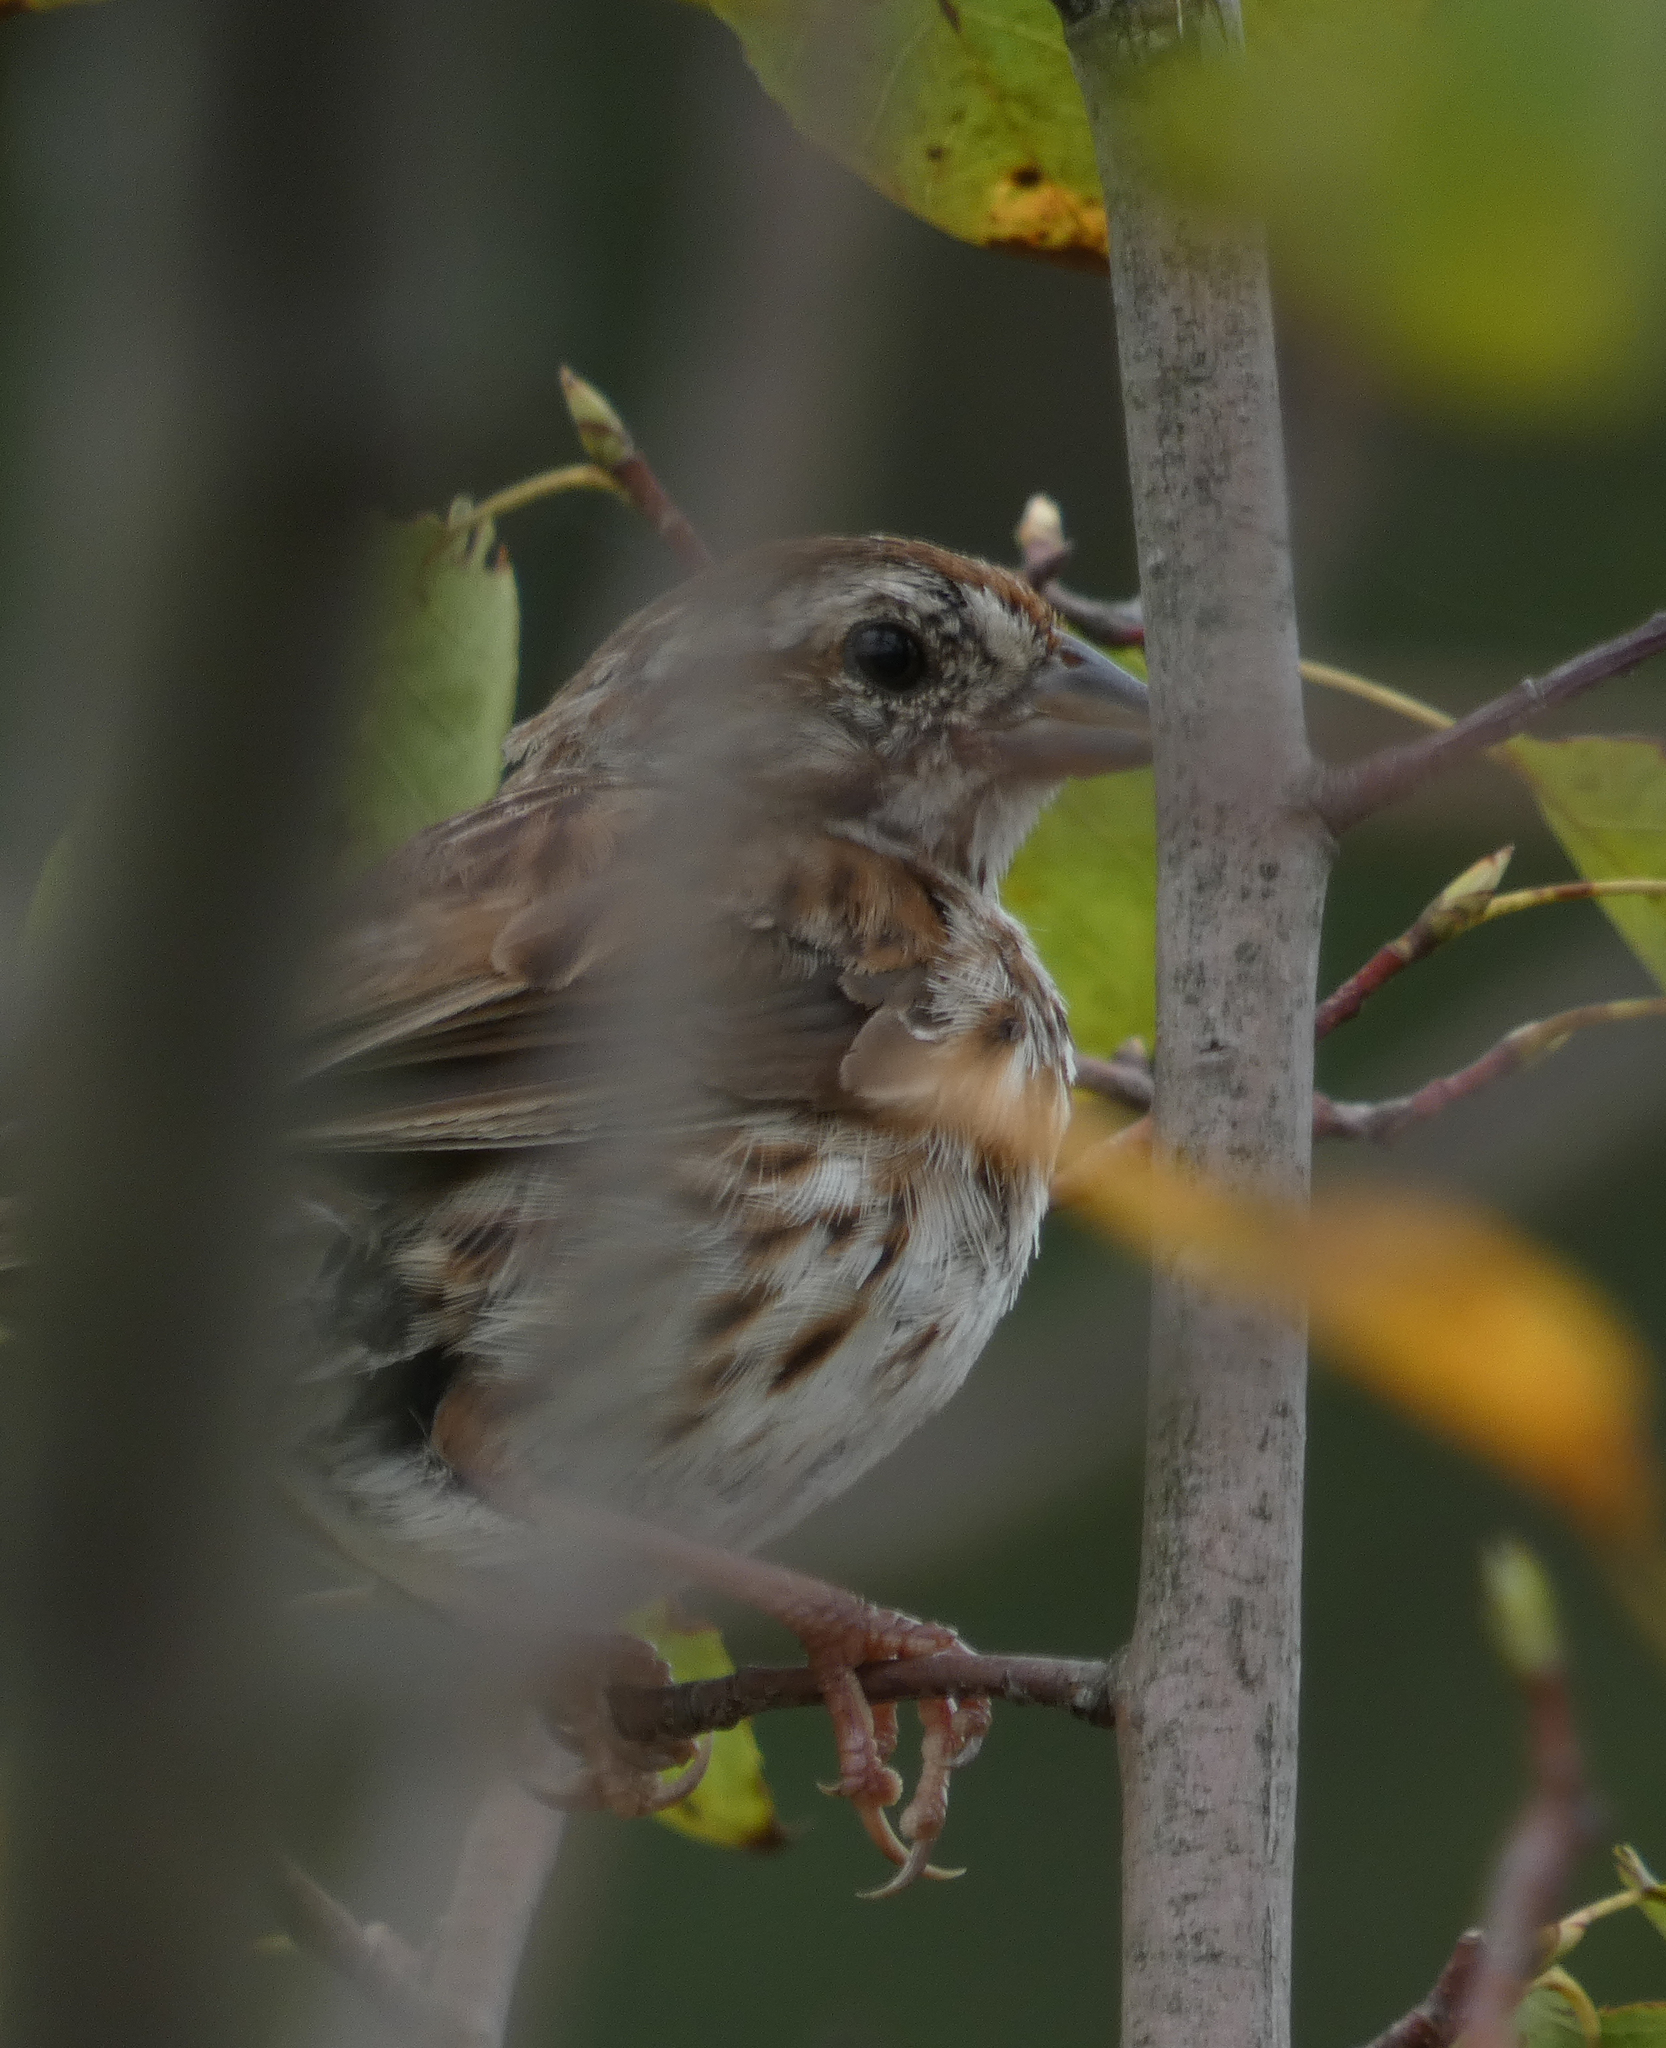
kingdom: Animalia
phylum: Chordata
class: Aves
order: Passeriformes
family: Passerellidae
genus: Melospiza
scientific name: Melospiza melodia
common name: Song sparrow
